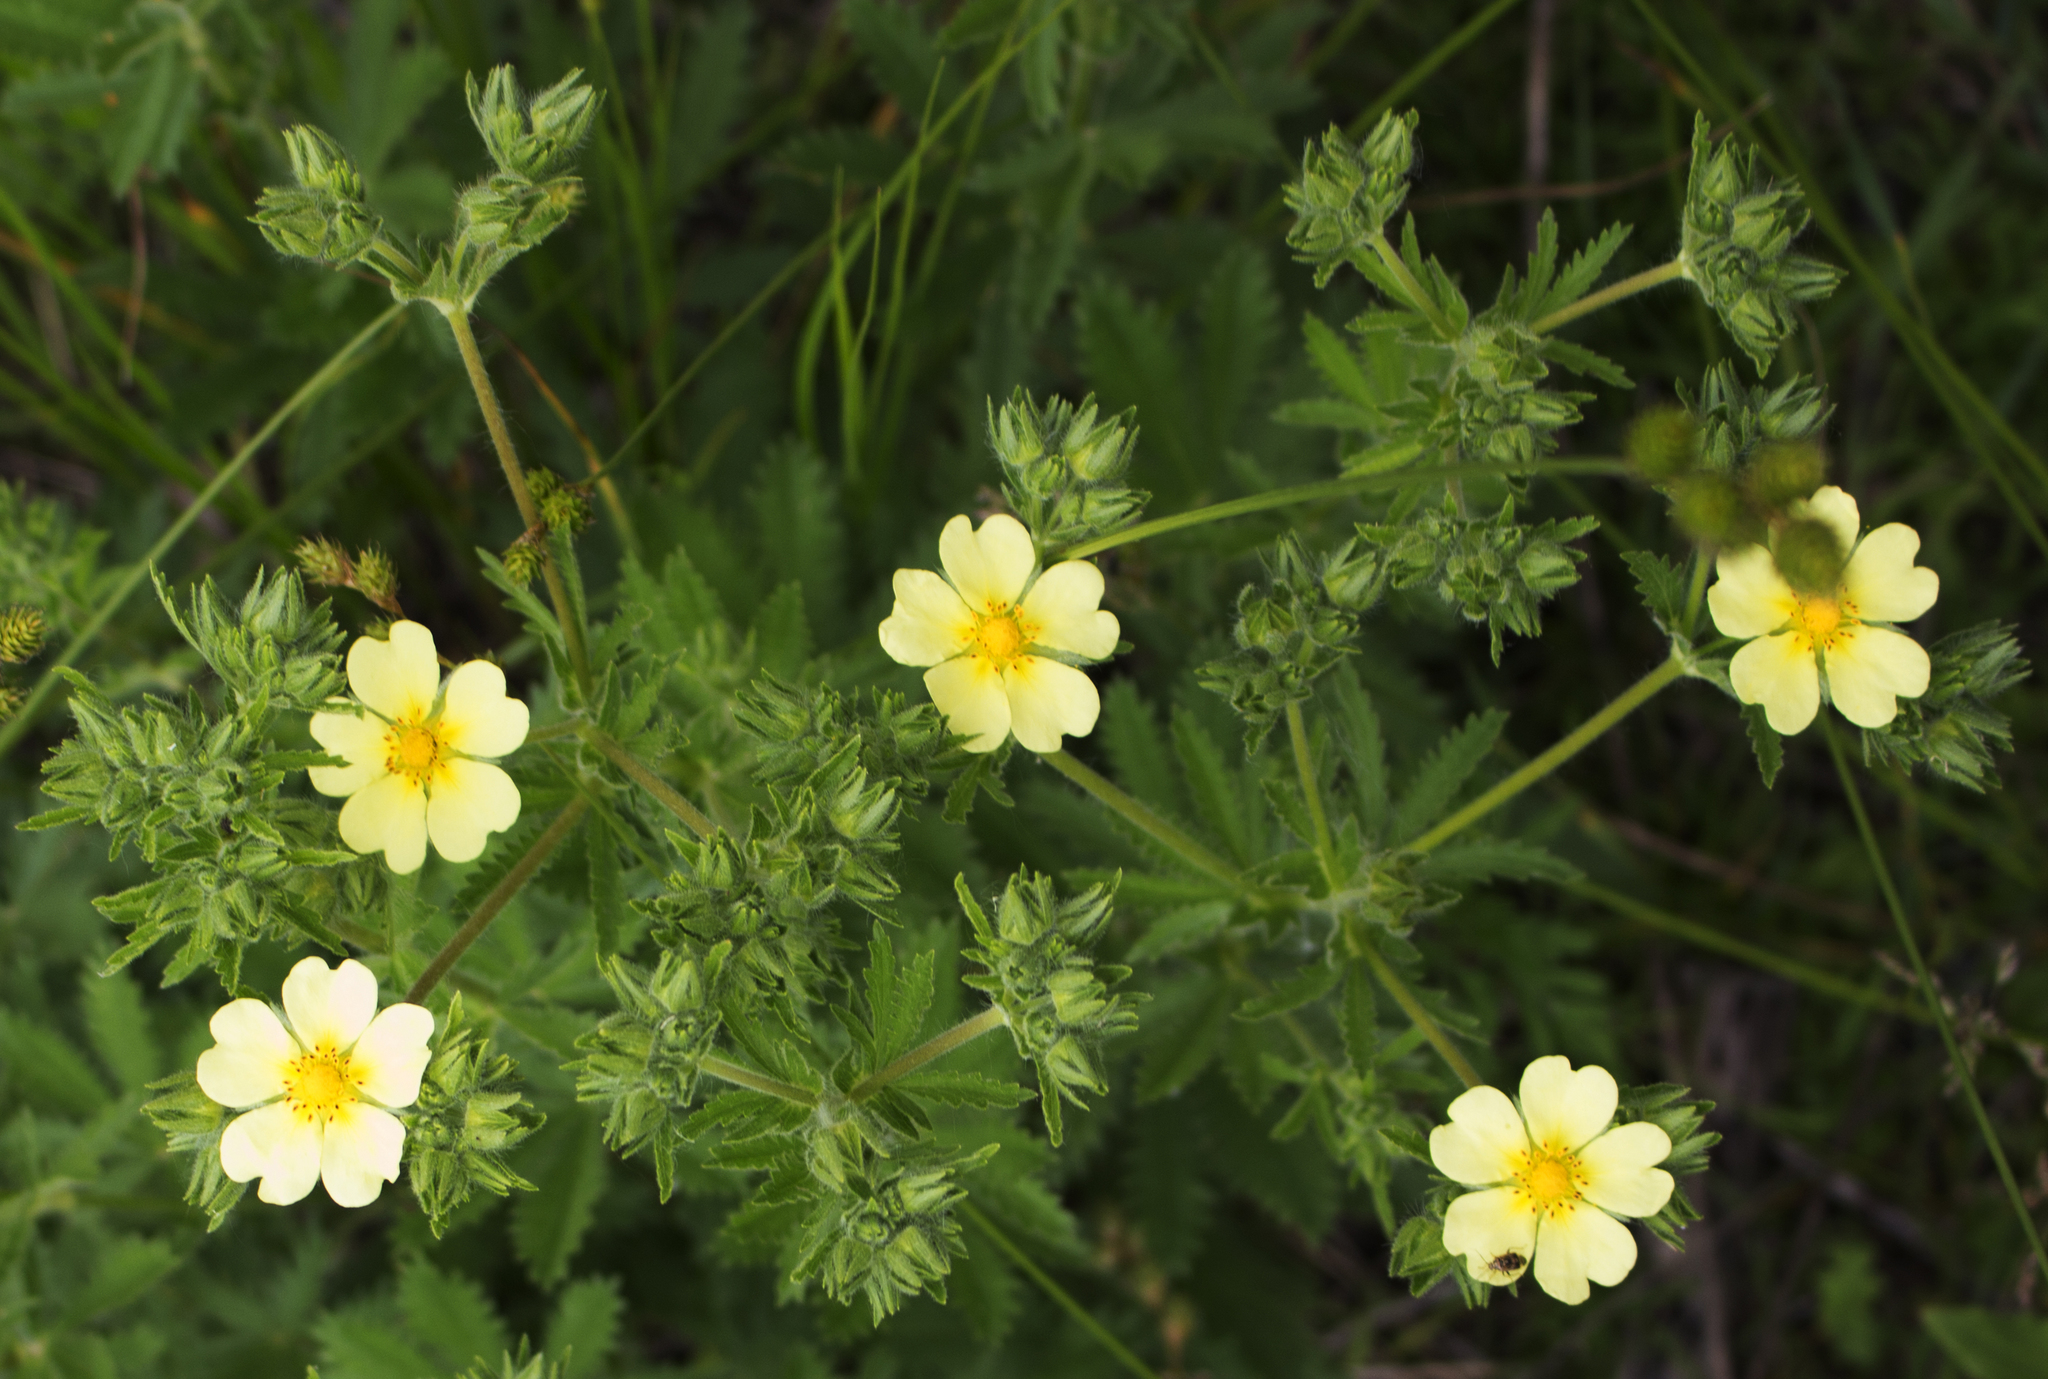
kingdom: Plantae
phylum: Tracheophyta
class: Magnoliopsida
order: Rosales
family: Rosaceae
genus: Potentilla
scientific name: Potentilla recta
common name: Sulphur cinquefoil
